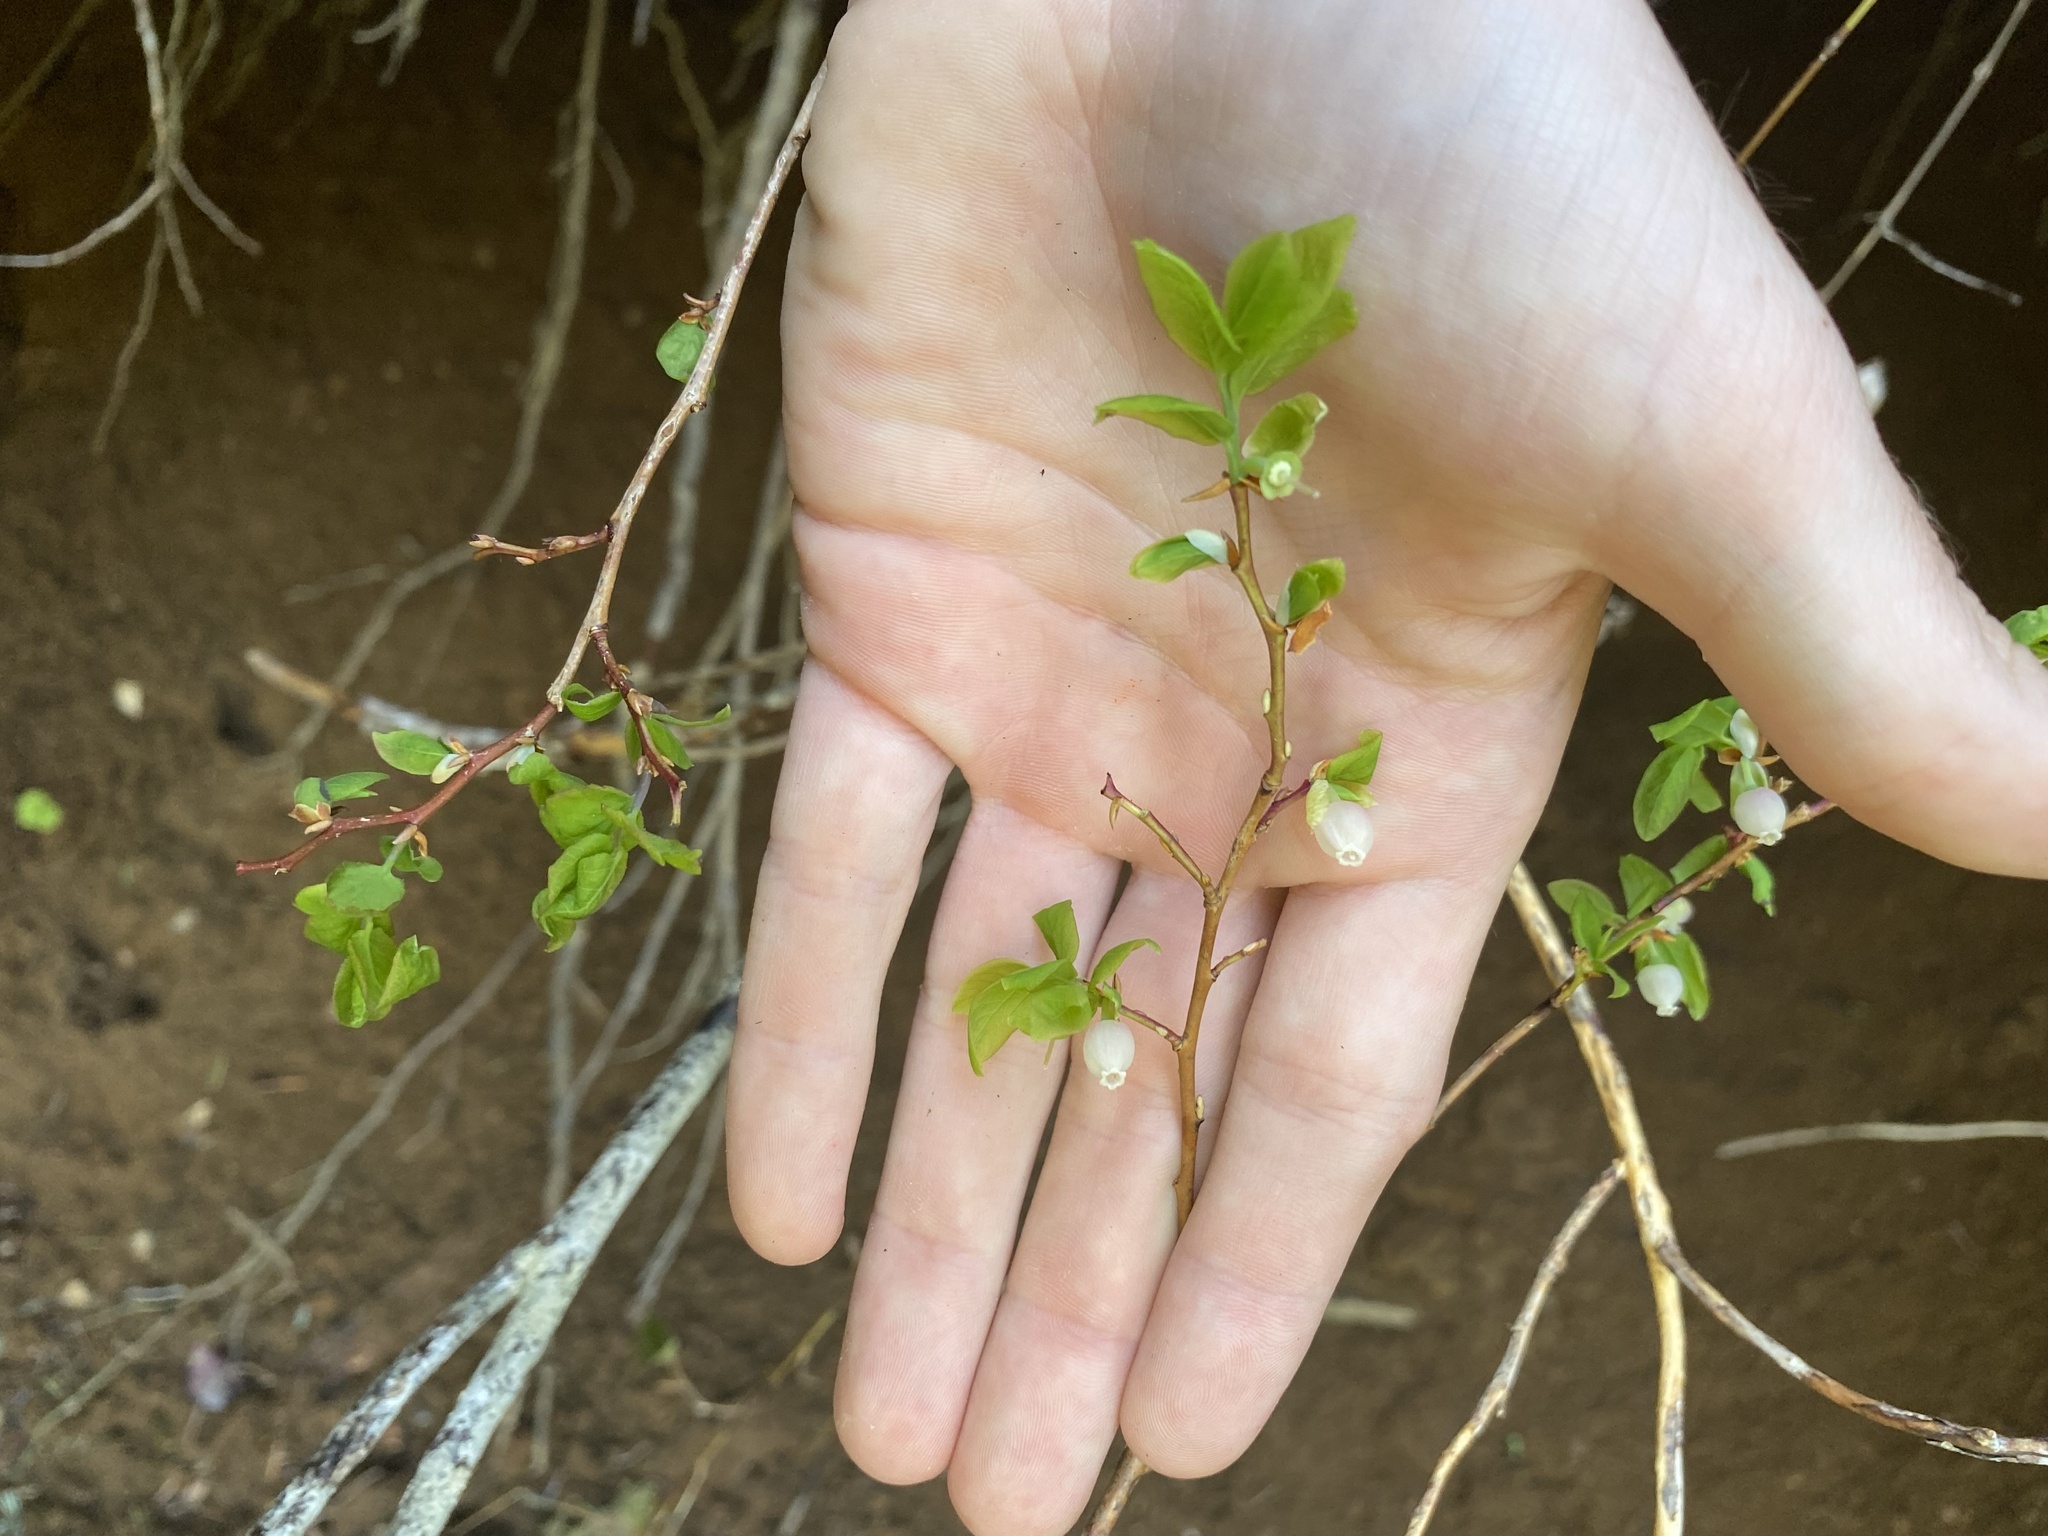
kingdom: Plantae
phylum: Tracheophyta
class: Magnoliopsida
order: Ericales
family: Ericaceae
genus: Vaccinium
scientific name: Vaccinium ovalifolium
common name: Early blueberry
